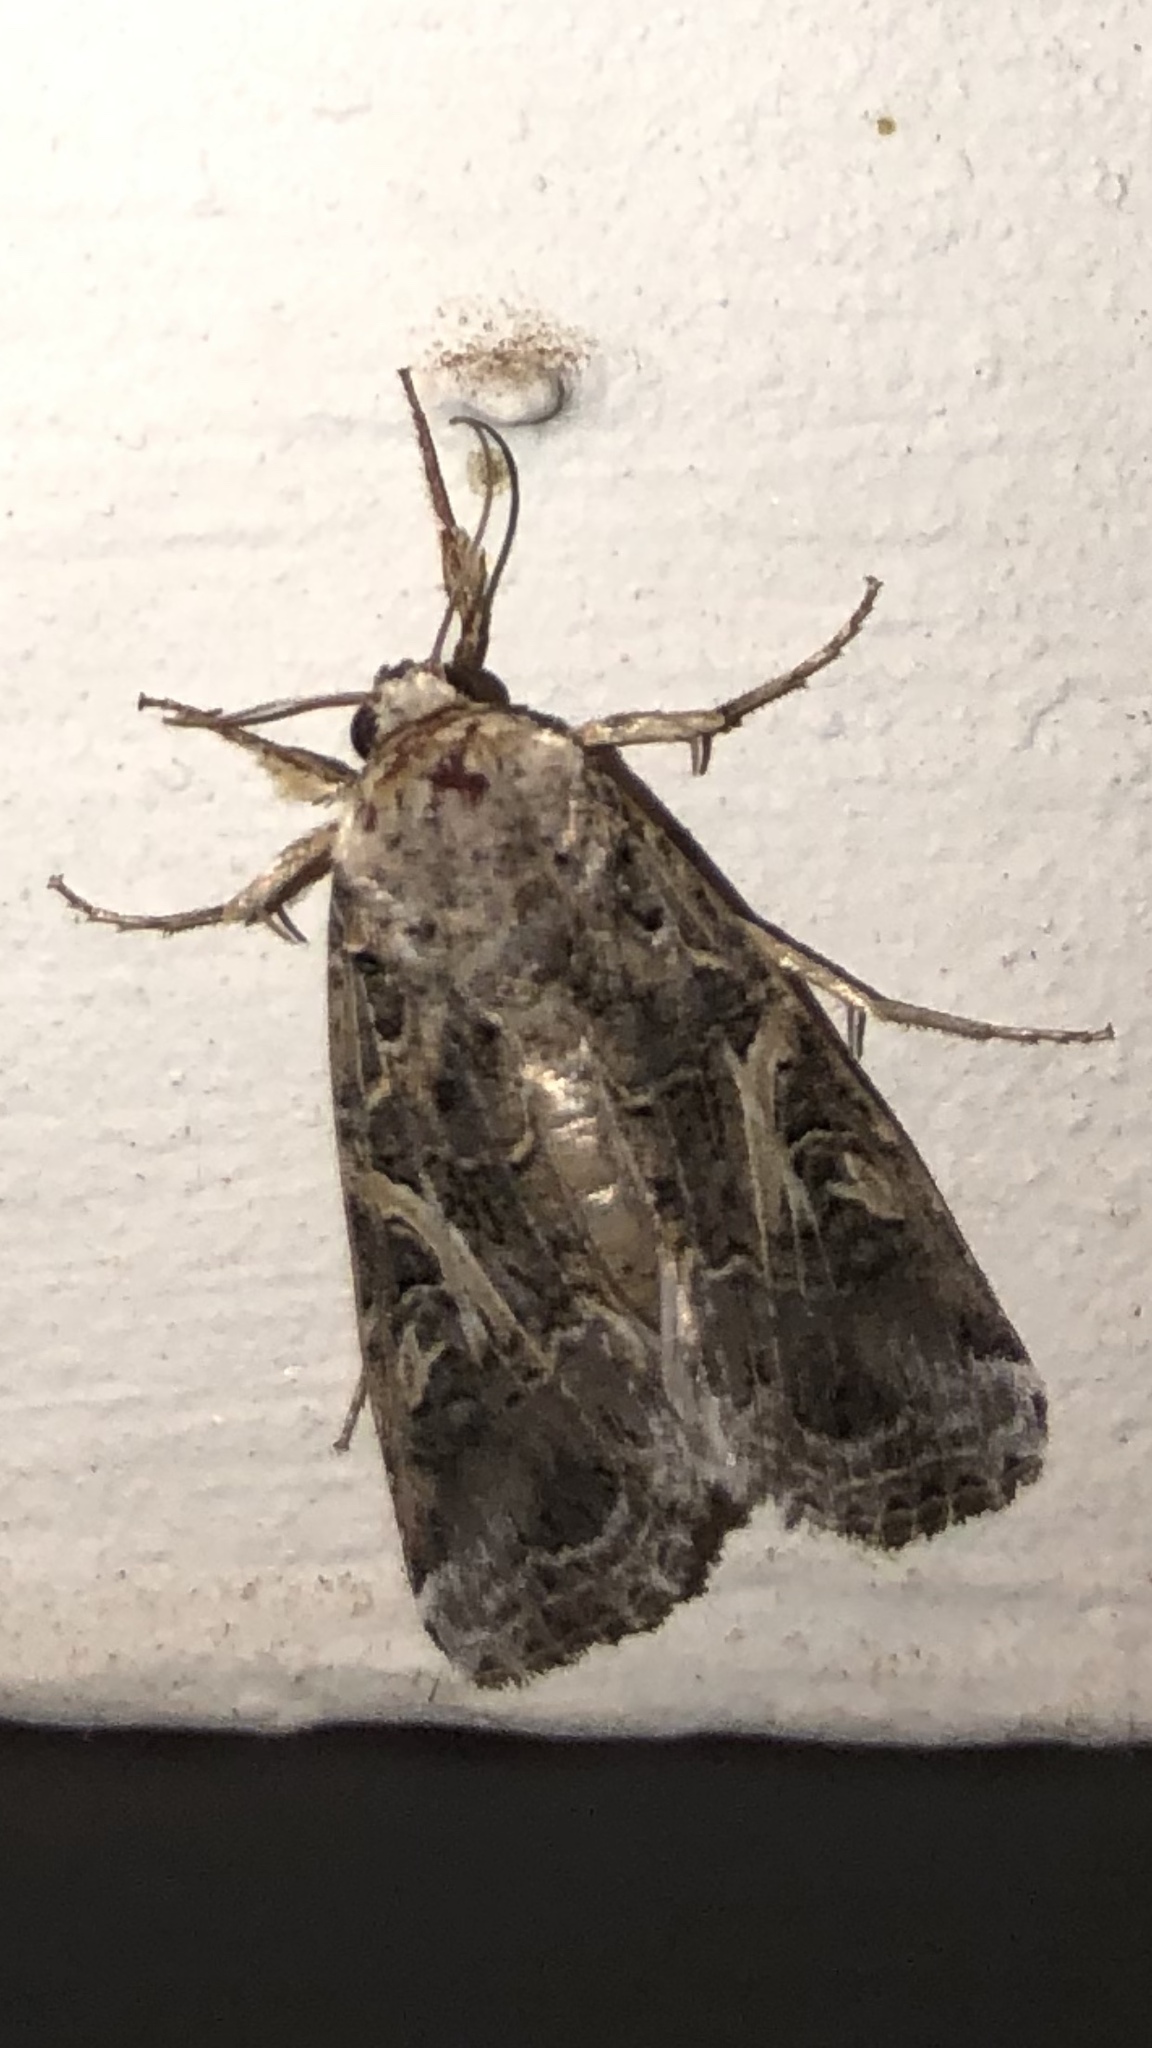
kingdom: Animalia
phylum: Arthropoda
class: Insecta
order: Lepidoptera
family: Noctuidae
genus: Spodoptera
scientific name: Spodoptera ornithogalli
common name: Yellow-striped armyworm
